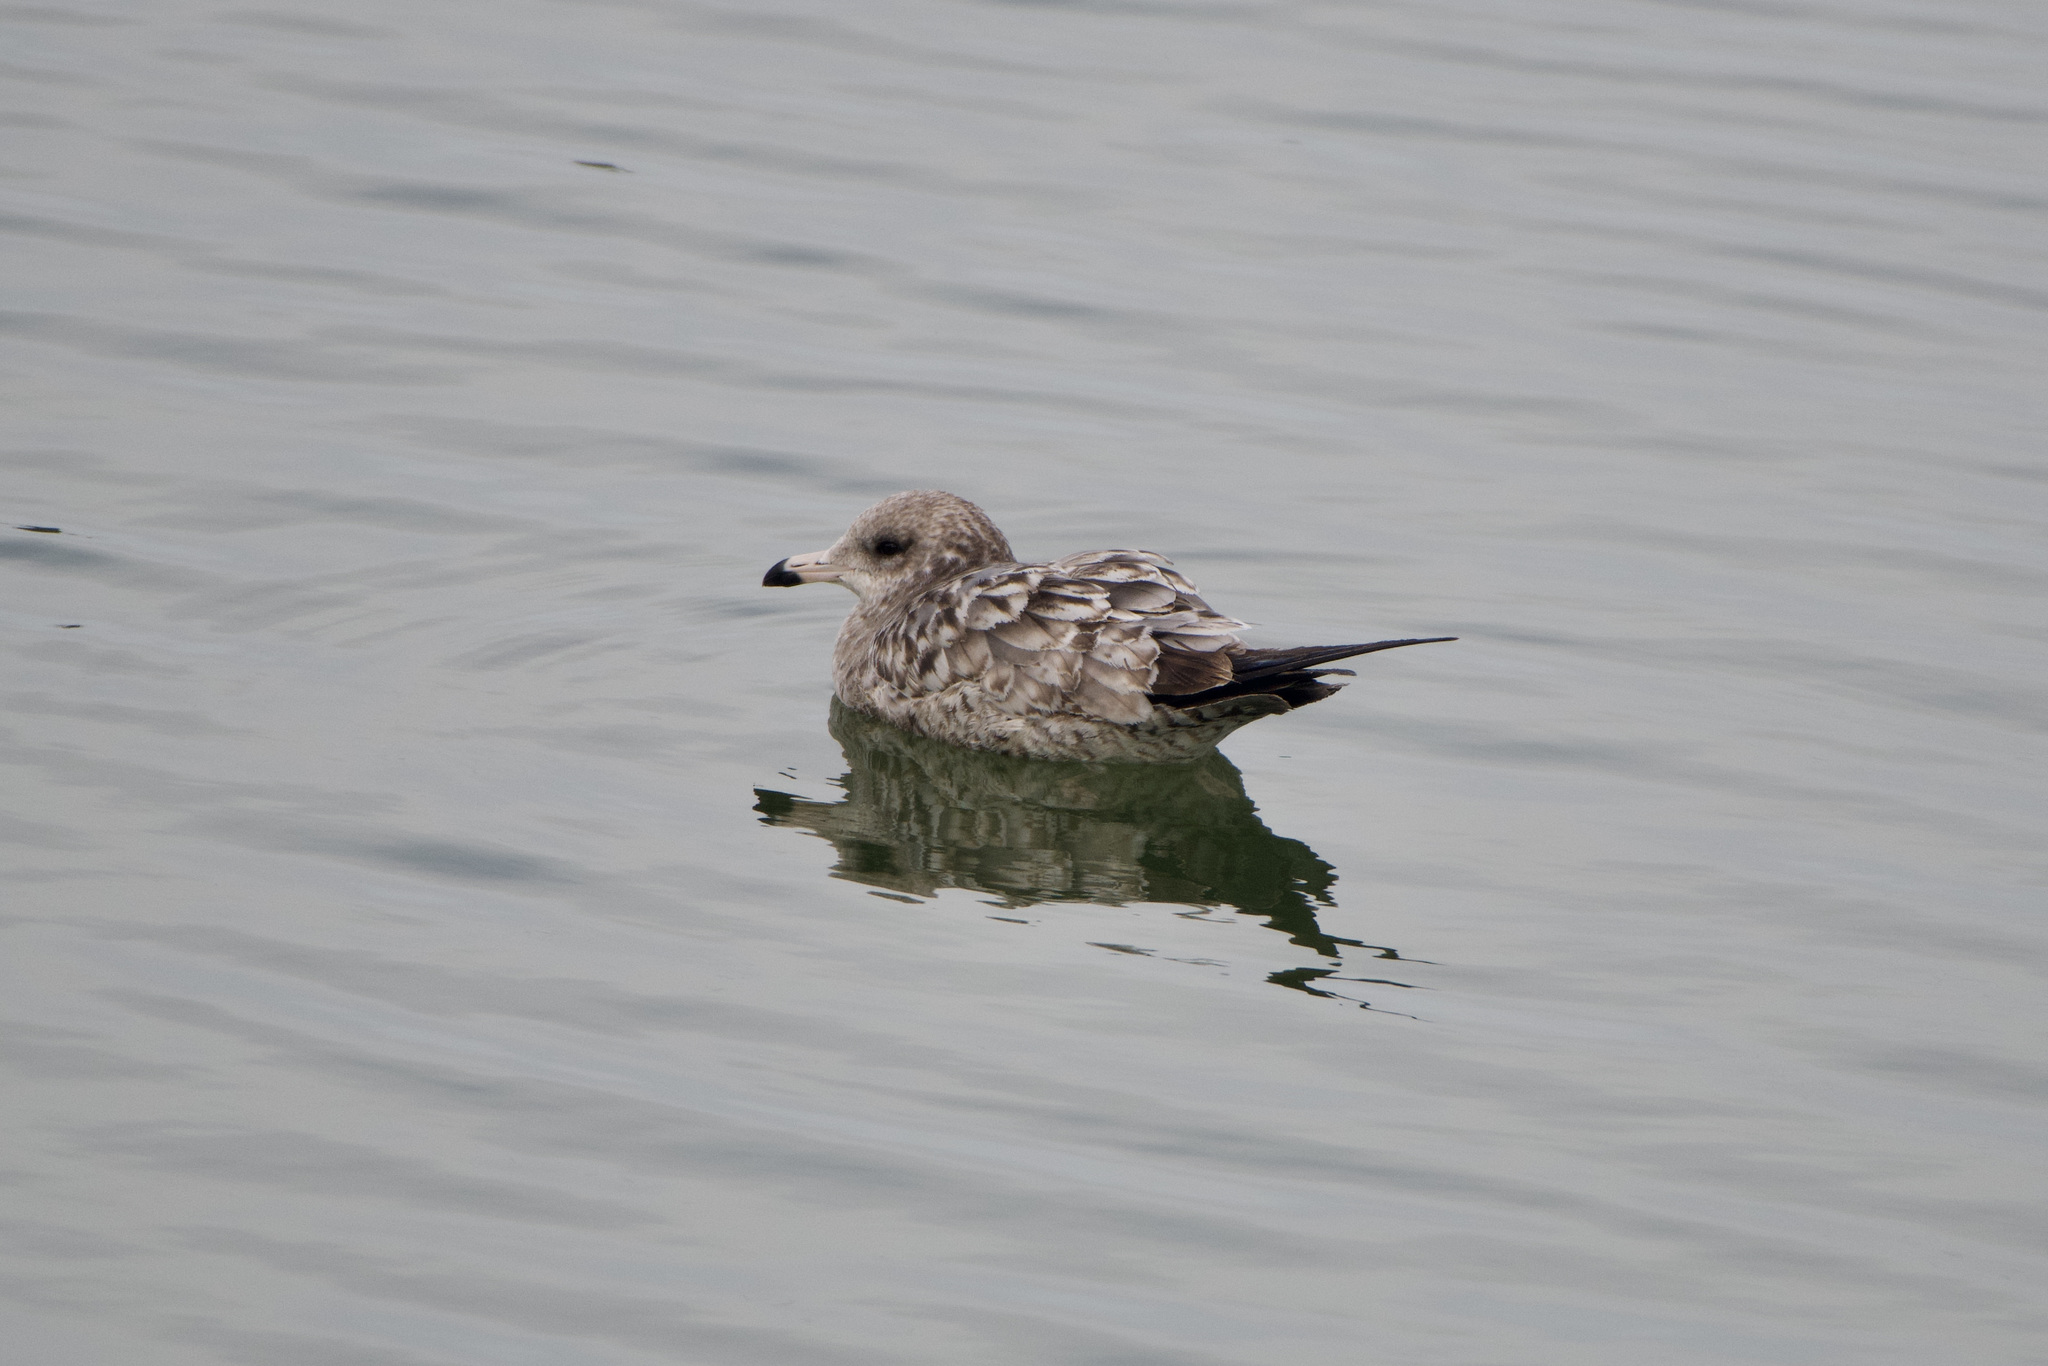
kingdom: Animalia
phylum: Chordata
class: Aves
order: Charadriiformes
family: Laridae
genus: Larus
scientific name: Larus californicus
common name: California gull
